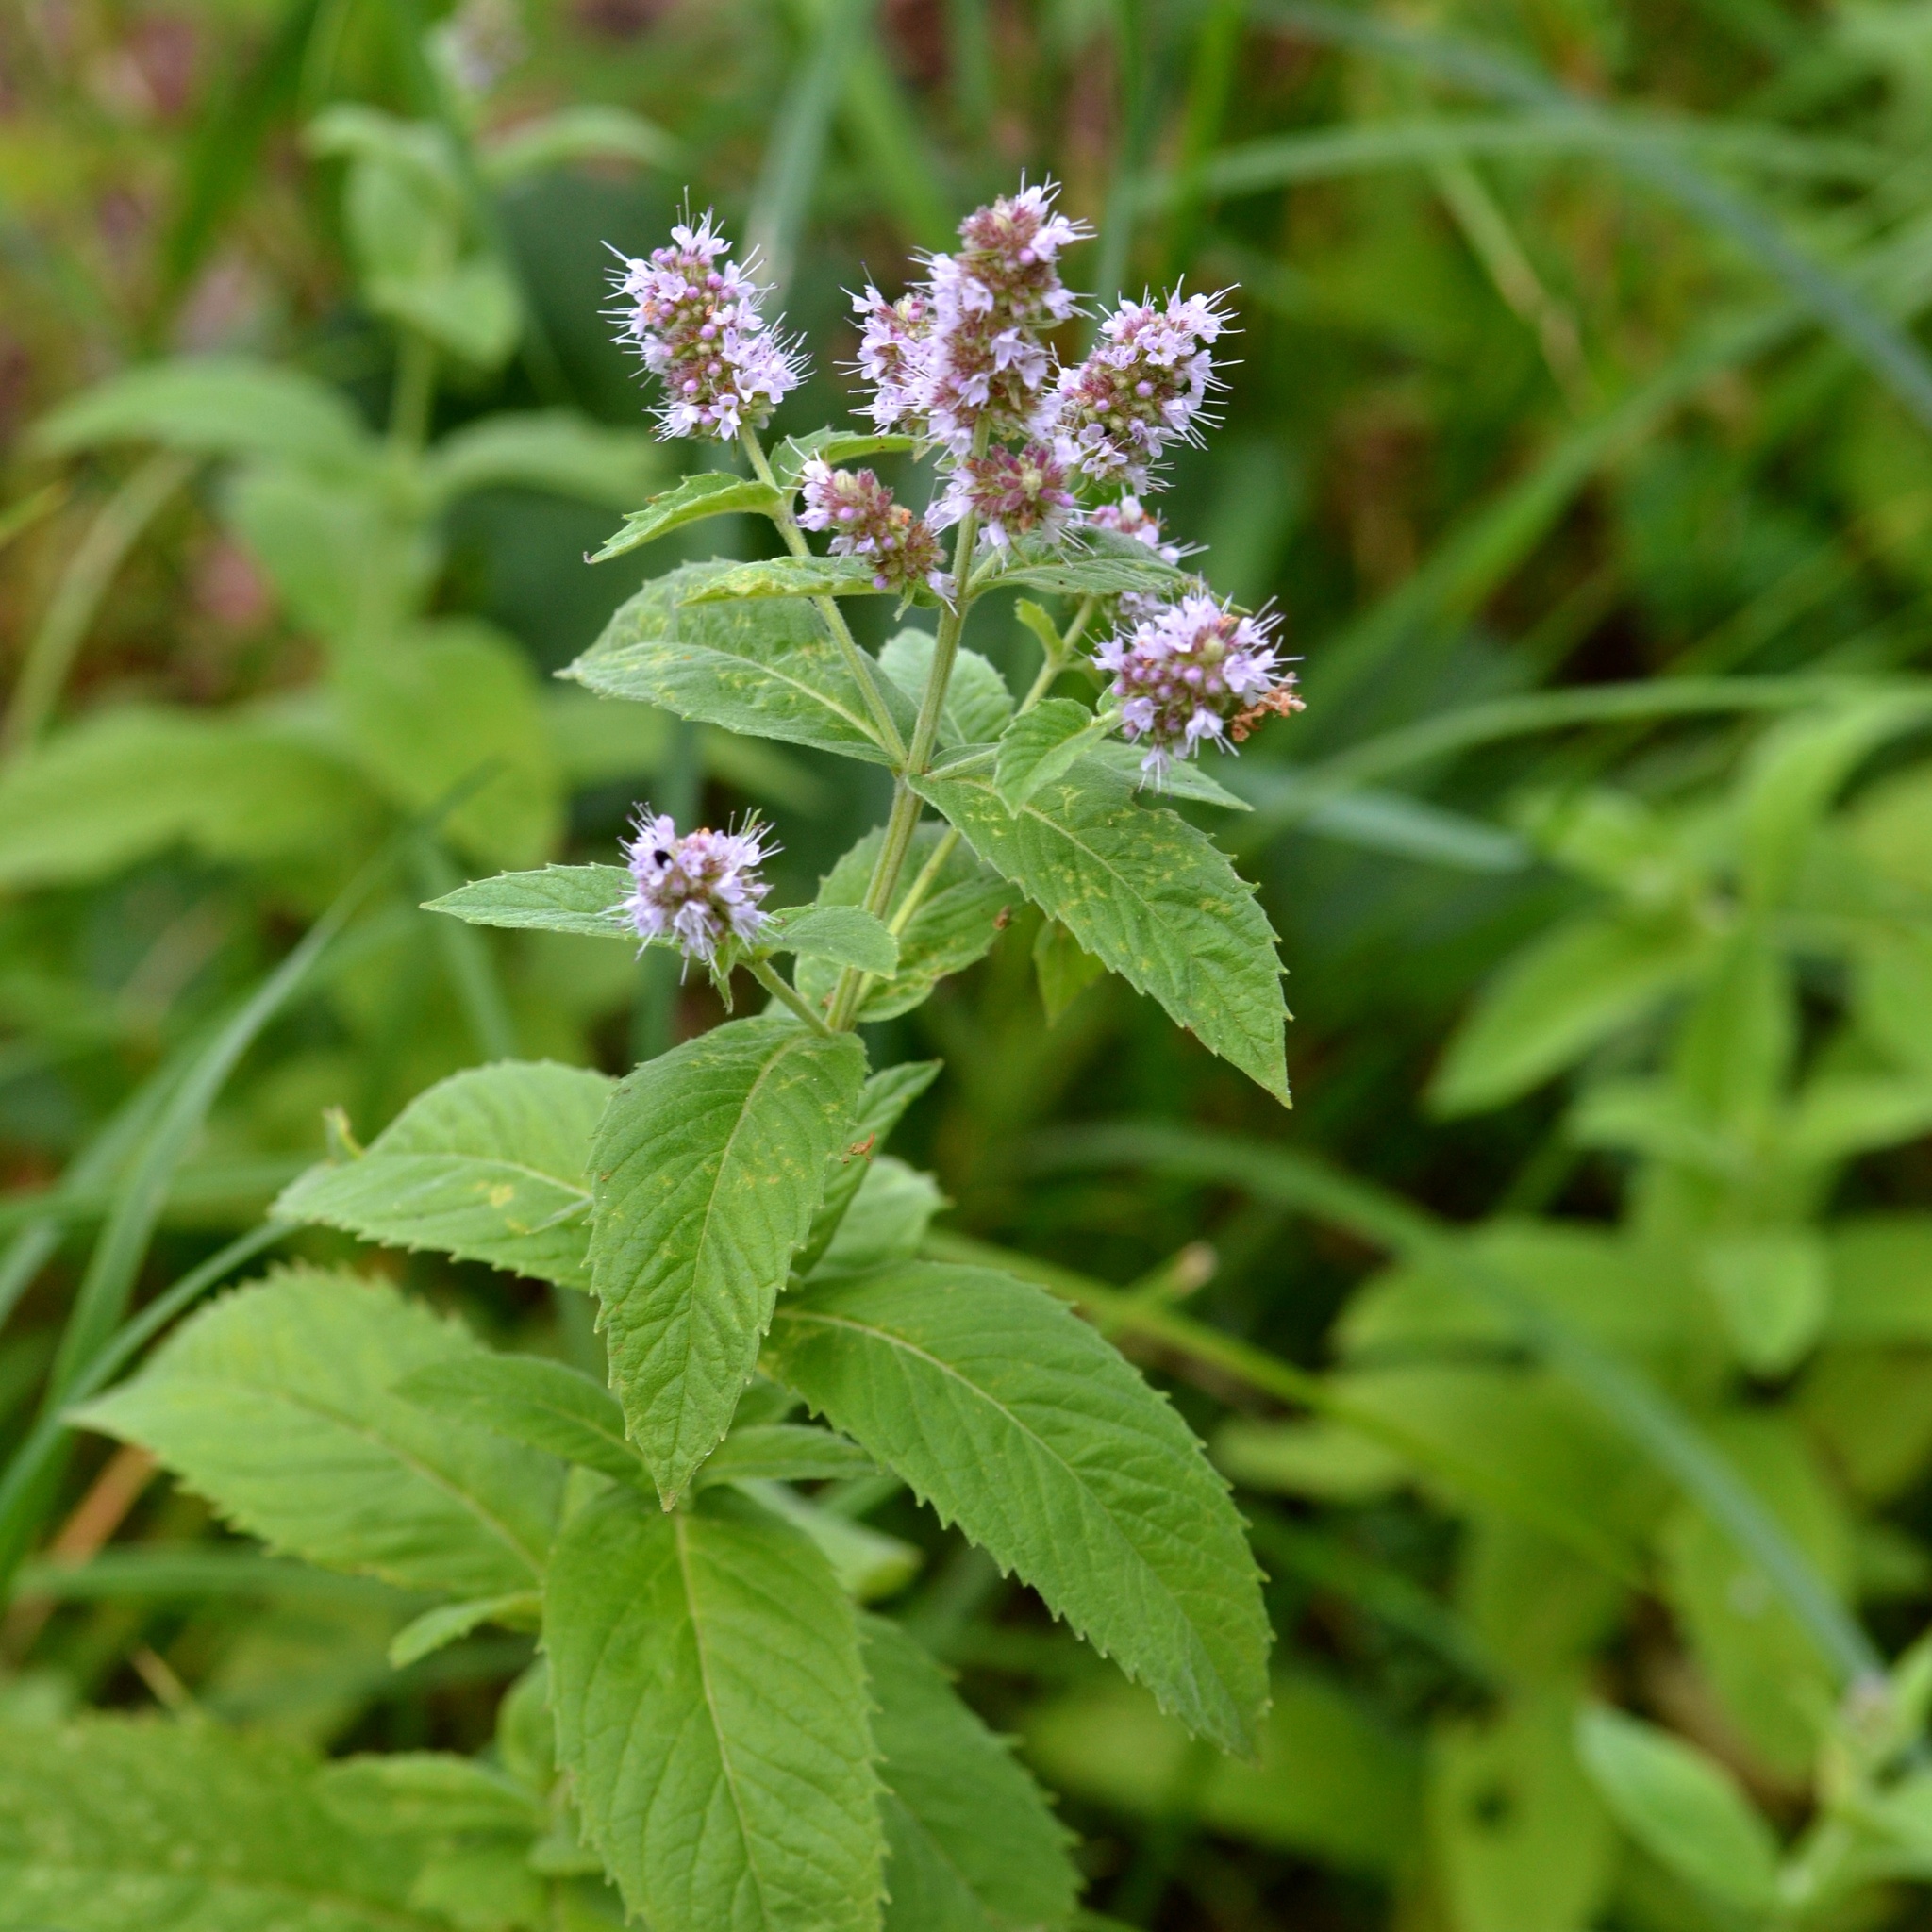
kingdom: Plantae
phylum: Tracheophyta
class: Magnoliopsida
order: Lamiales
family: Lamiaceae
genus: Mentha
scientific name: Mentha longifolia
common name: Horse mint
